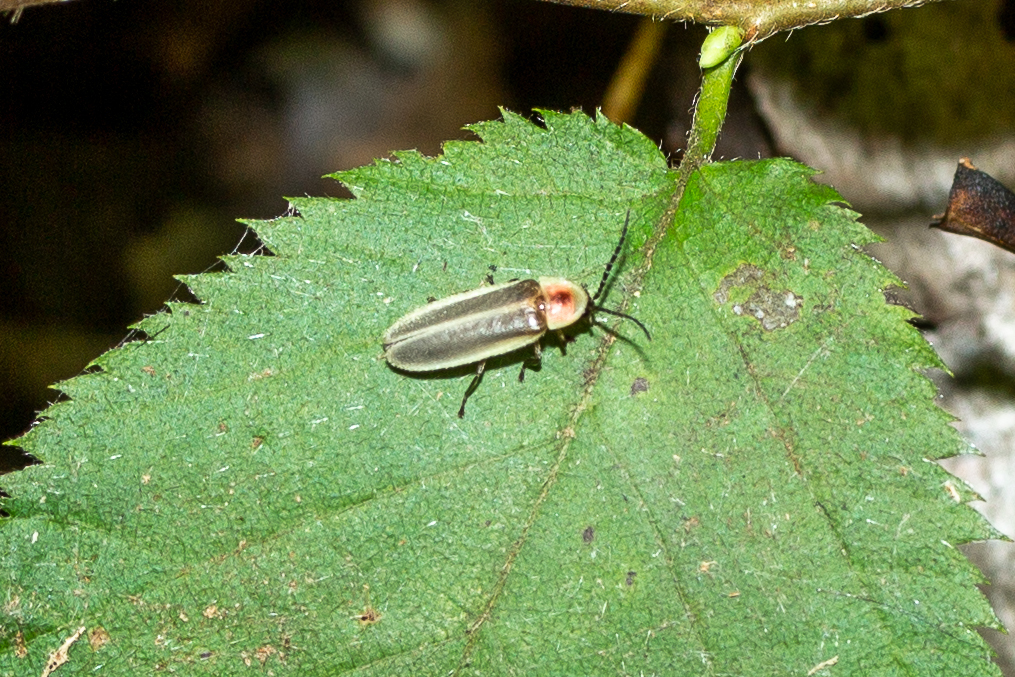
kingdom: Animalia
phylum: Arthropoda
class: Insecta
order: Coleoptera
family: Lampyridae
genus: Photinus
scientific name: Photinus pyralis
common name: Big dipper firefly
